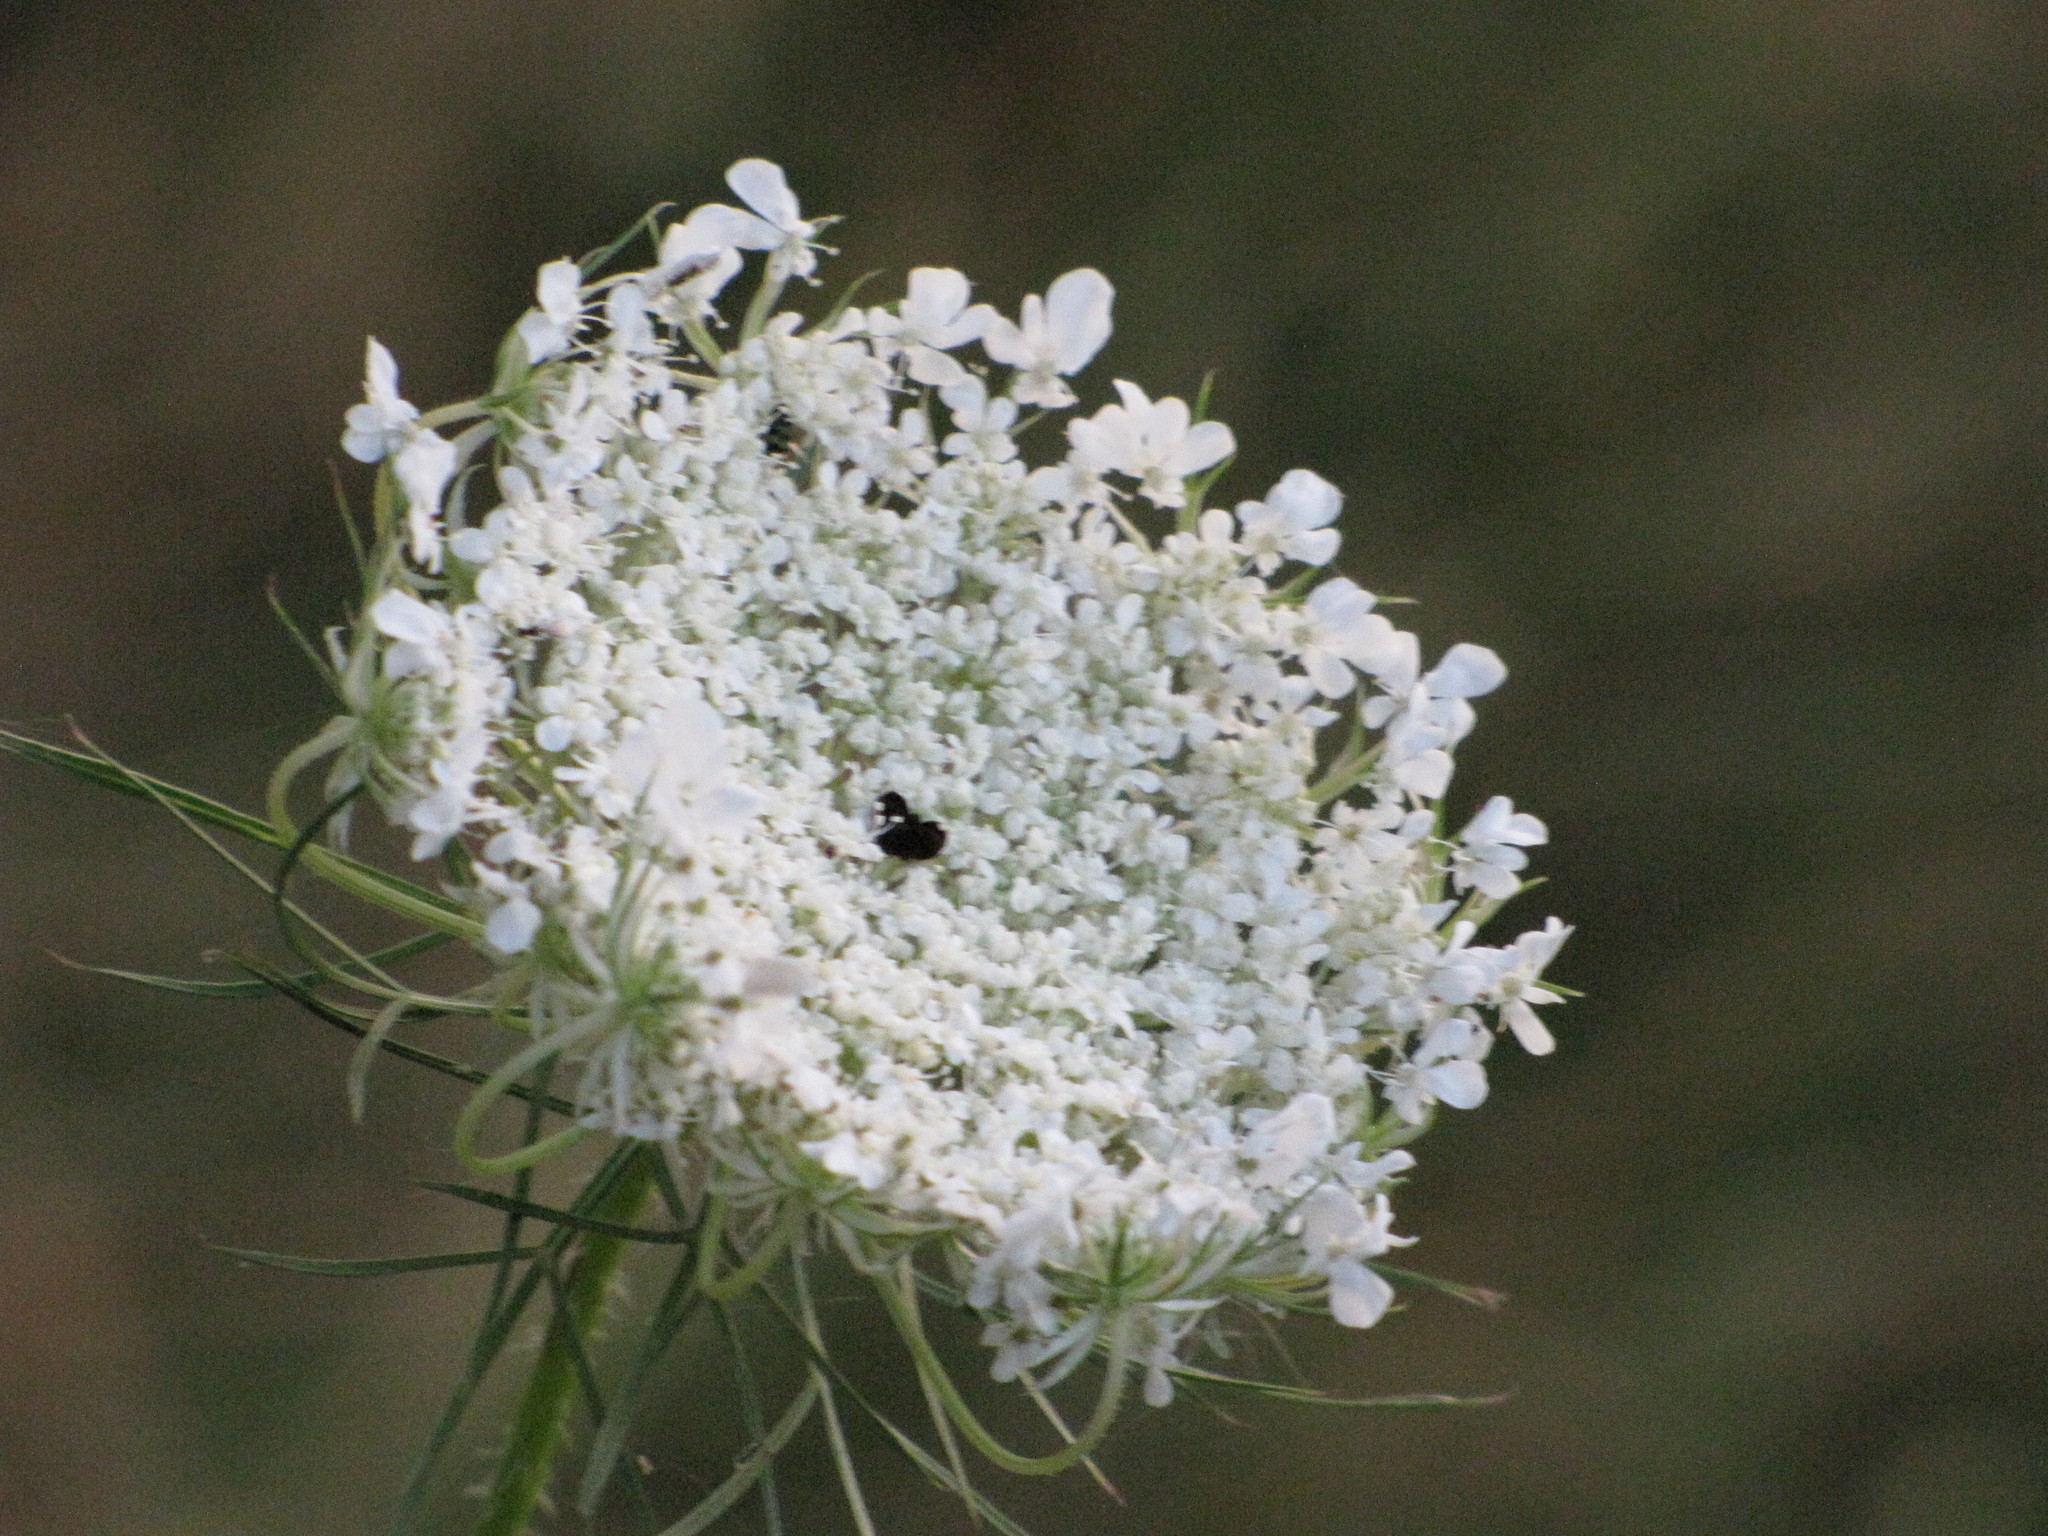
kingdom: Plantae
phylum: Tracheophyta
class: Magnoliopsida
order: Apiales
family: Apiaceae
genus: Daucus
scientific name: Daucus carota
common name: Wild carrot
